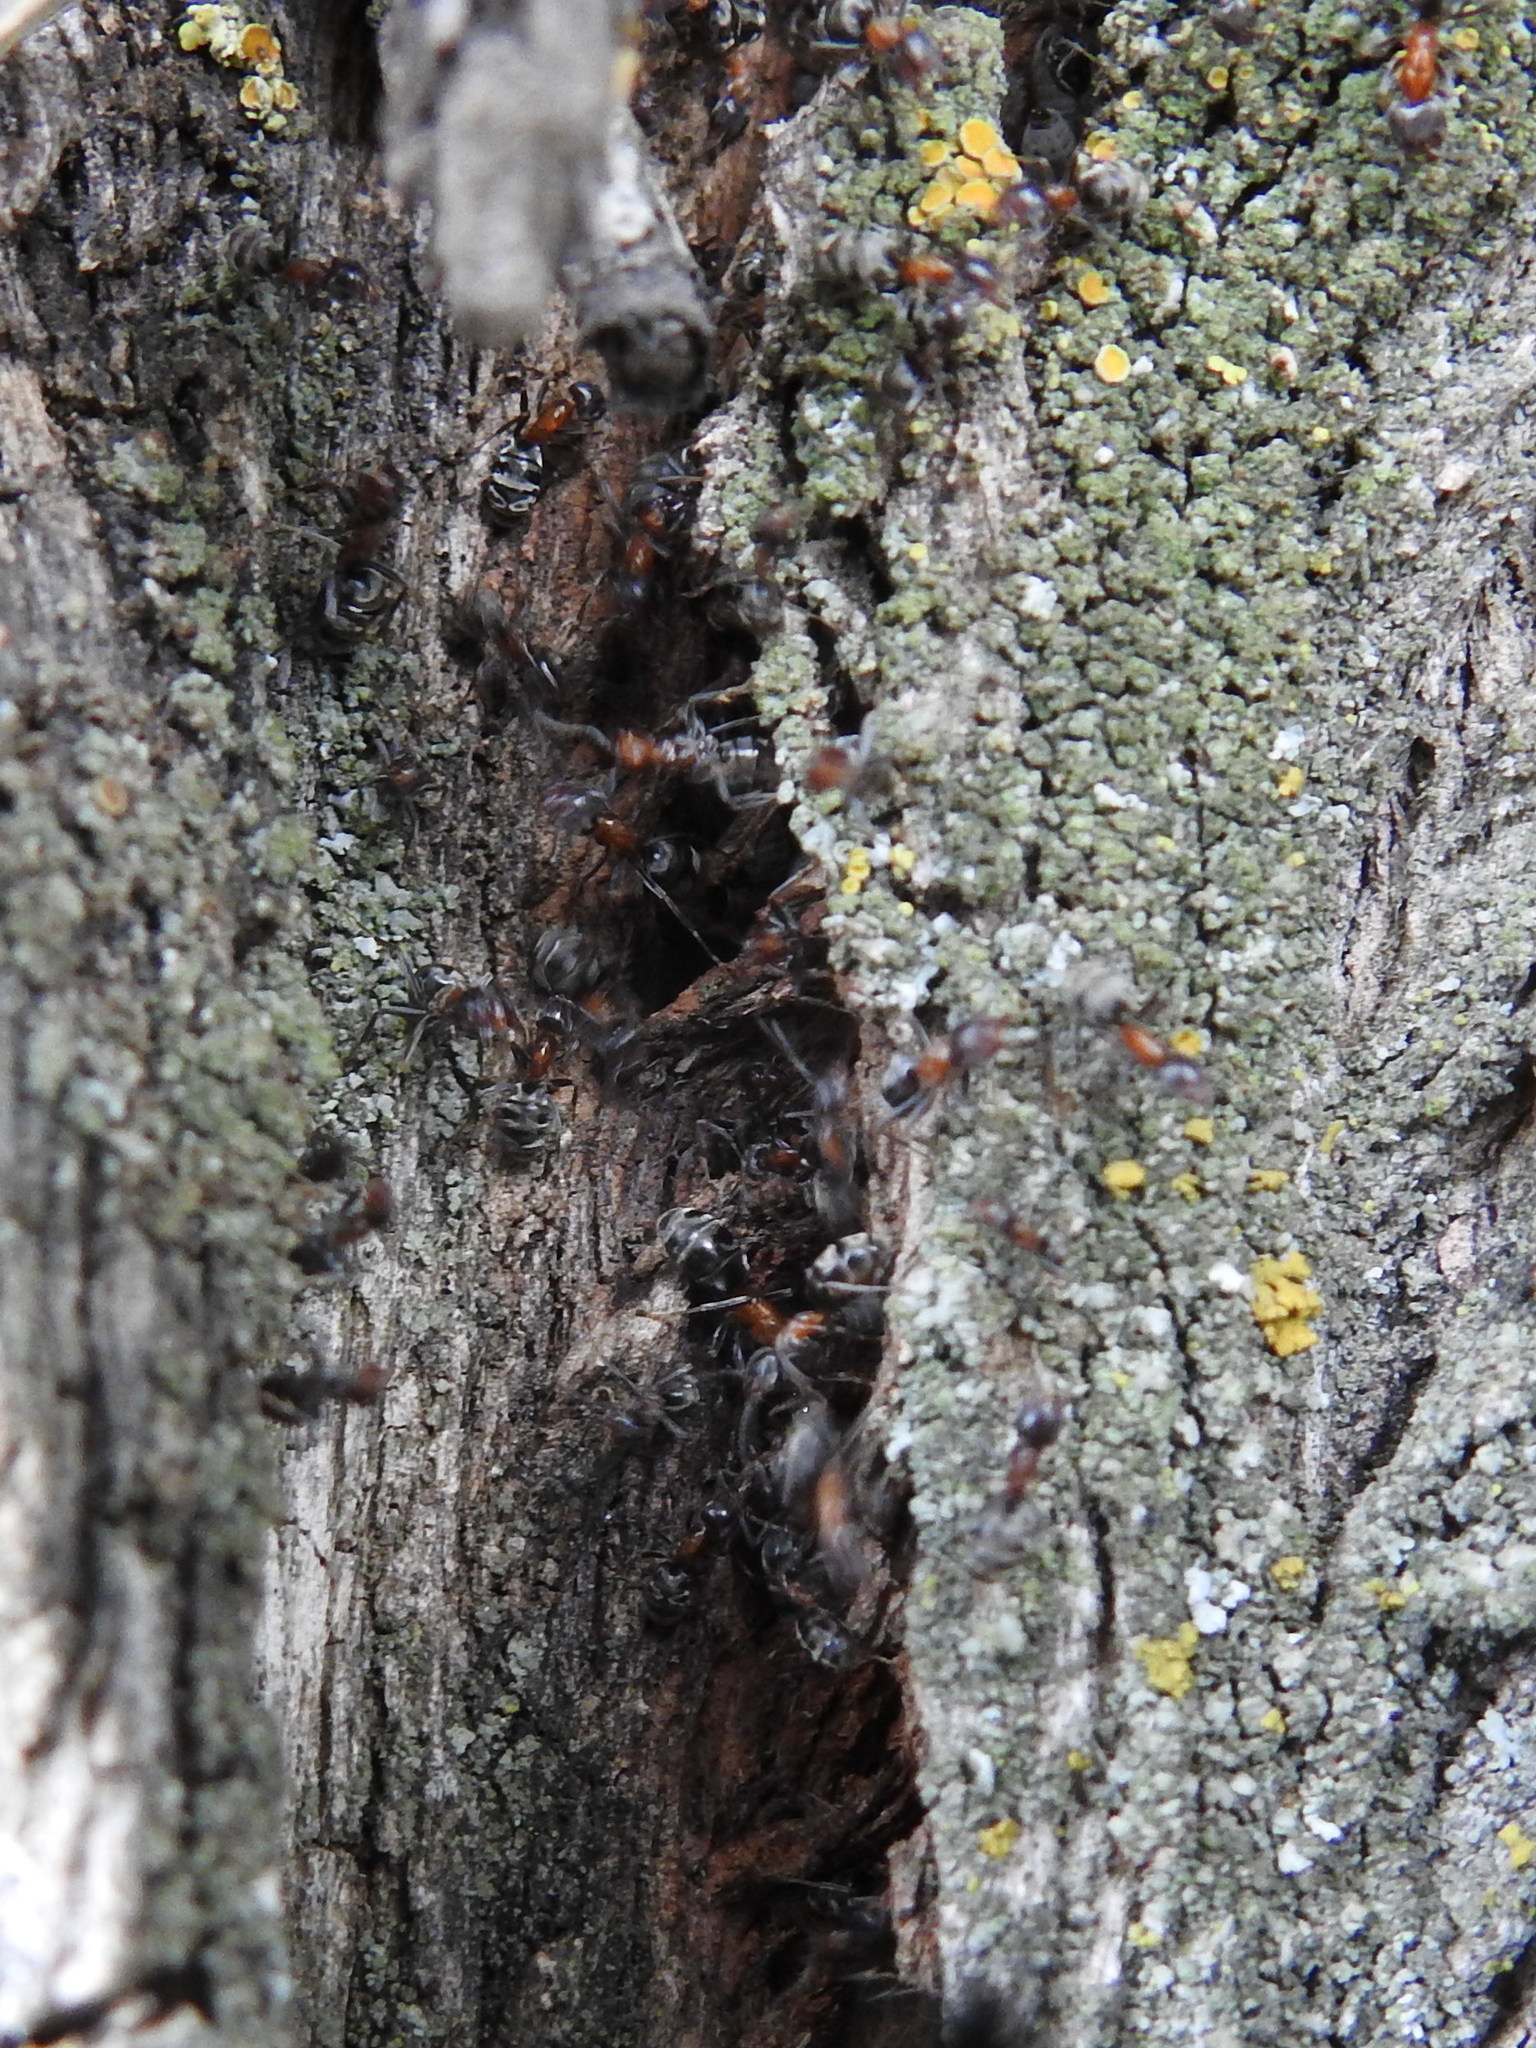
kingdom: Animalia
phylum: Arthropoda
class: Insecta
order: Hymenoptera
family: Formicidae
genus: Liometopum
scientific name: Liometopum microcephalum
